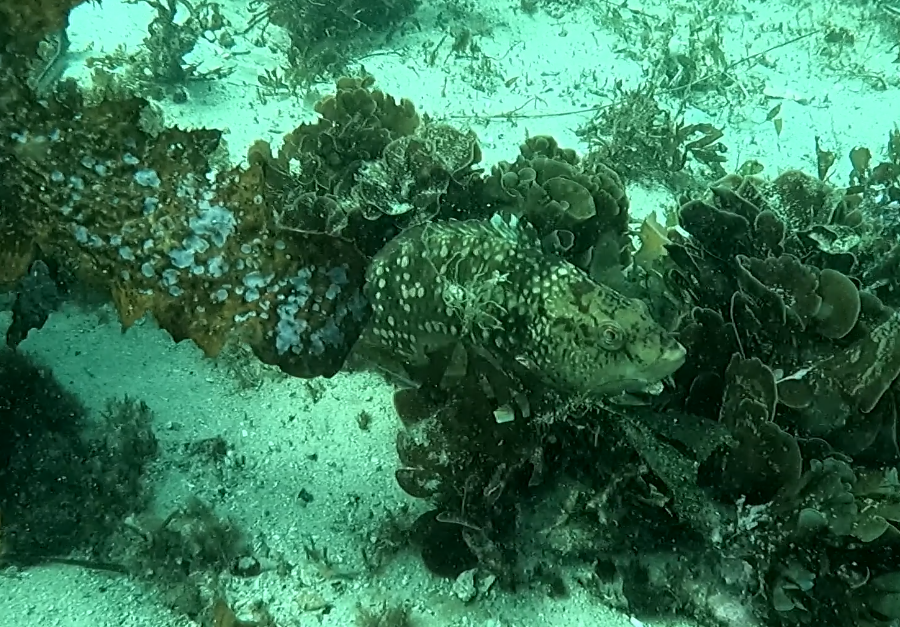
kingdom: Animalia
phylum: Chordata
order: Perciformes
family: Labridae
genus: Notolabrus
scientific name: Notolabrus gymnogenis
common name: Crimson banded wrasse
